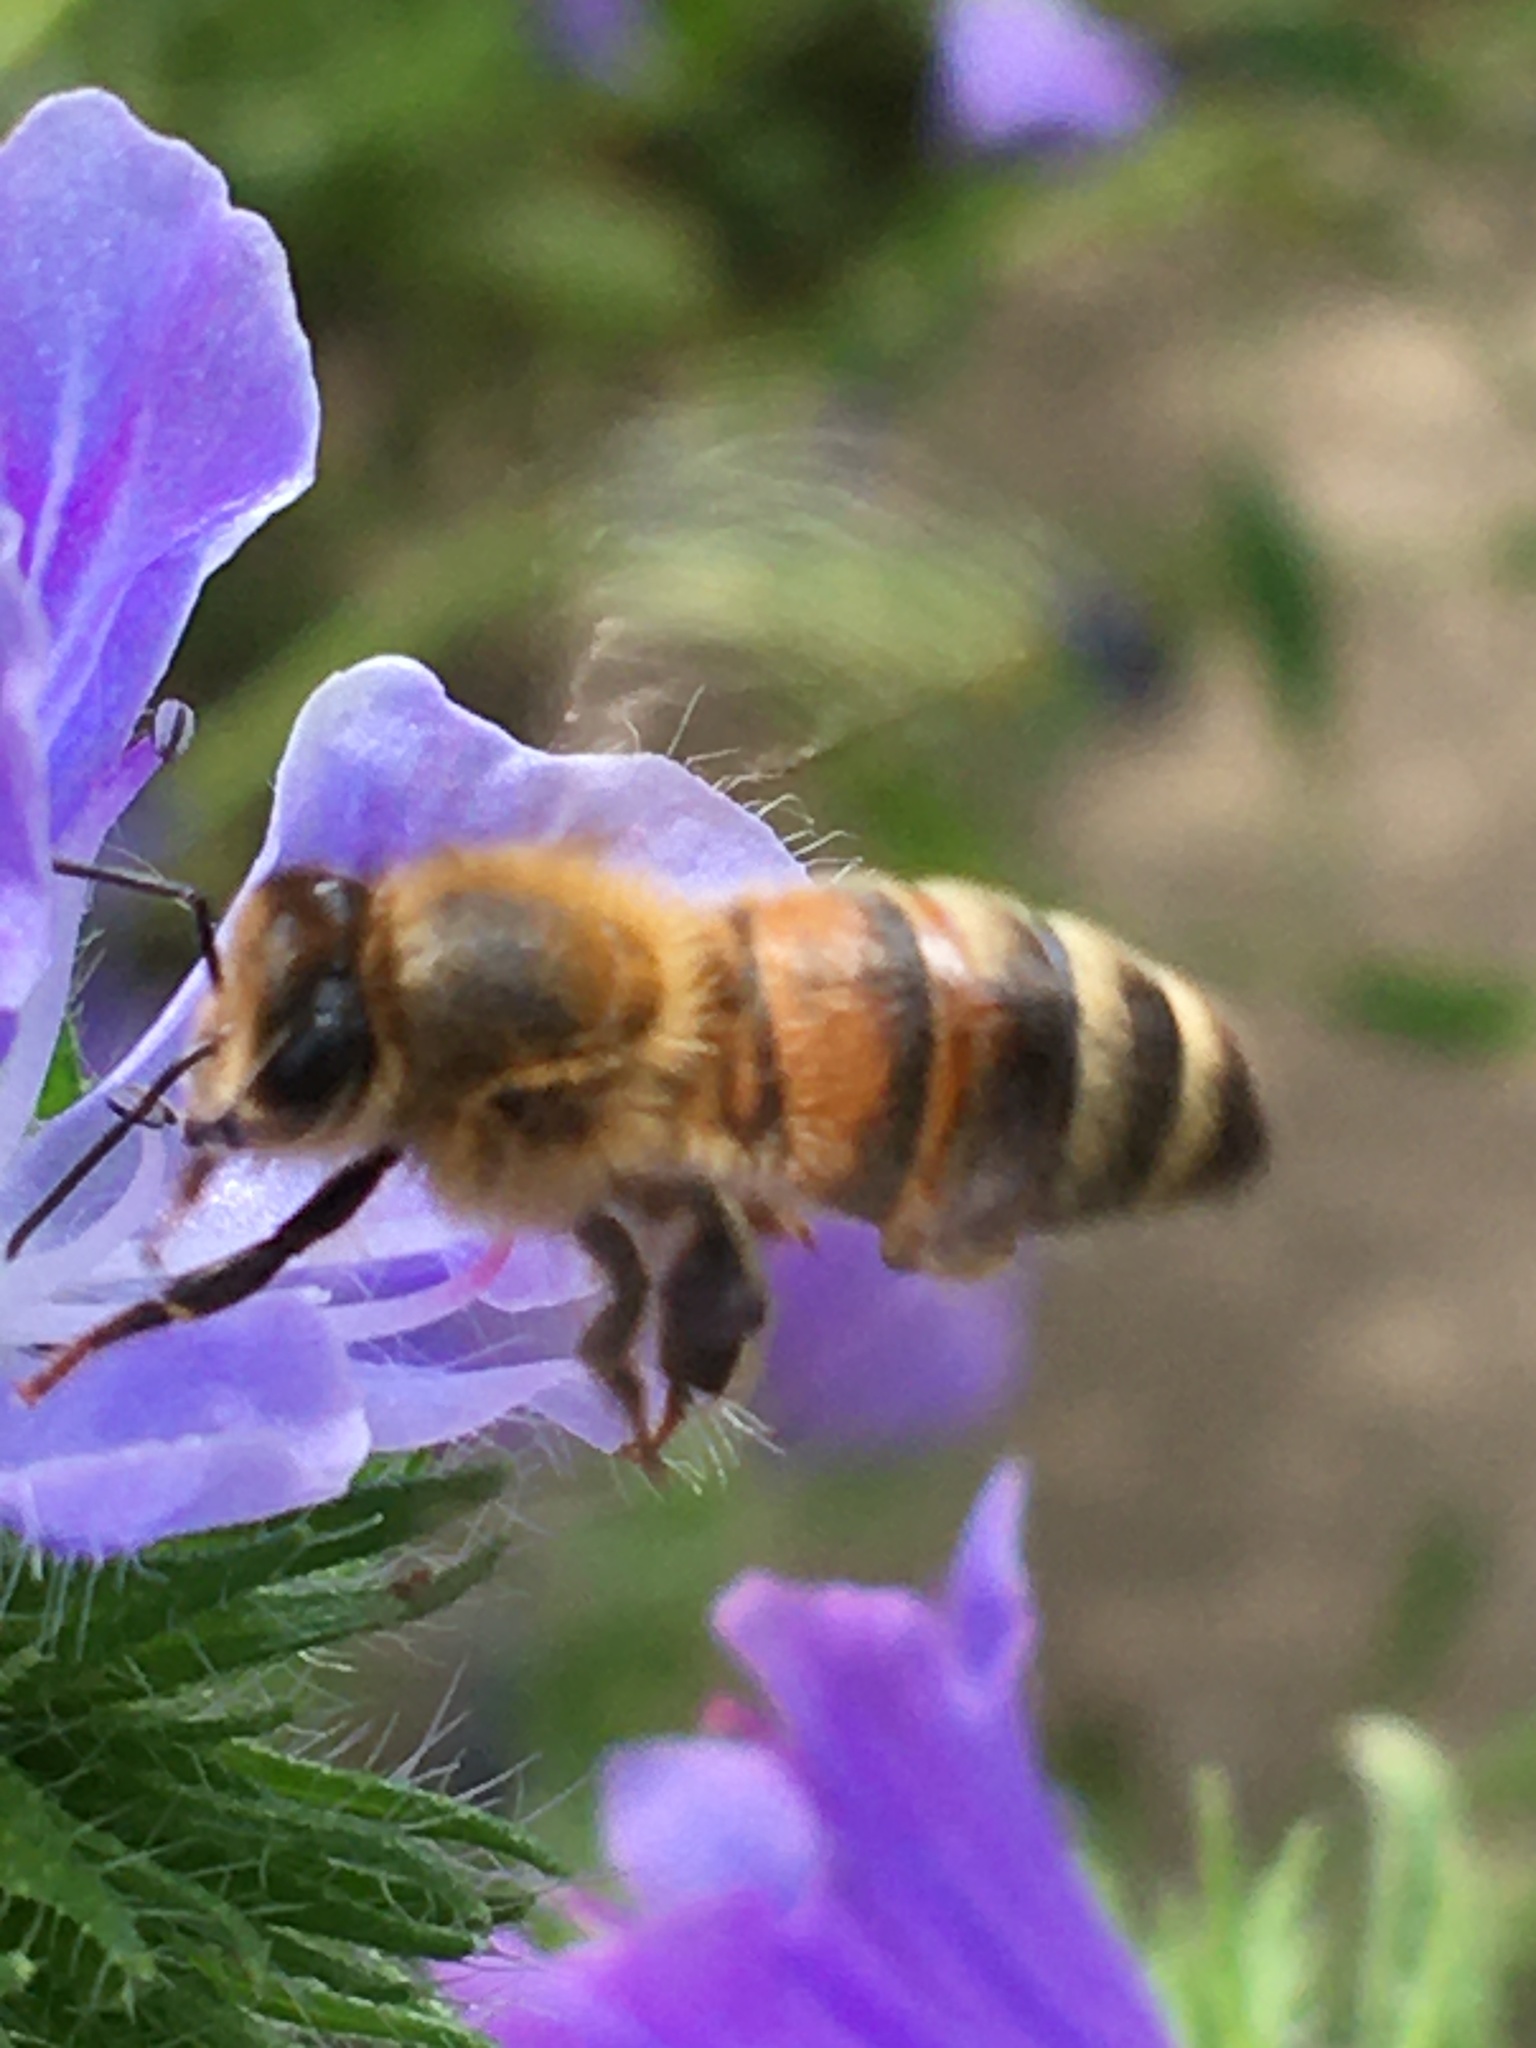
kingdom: Animalia
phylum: Arthropoda
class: Insecta
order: Hymenoptera
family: Apidae
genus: Apis
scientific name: Apis mellifera
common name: Honey bee
